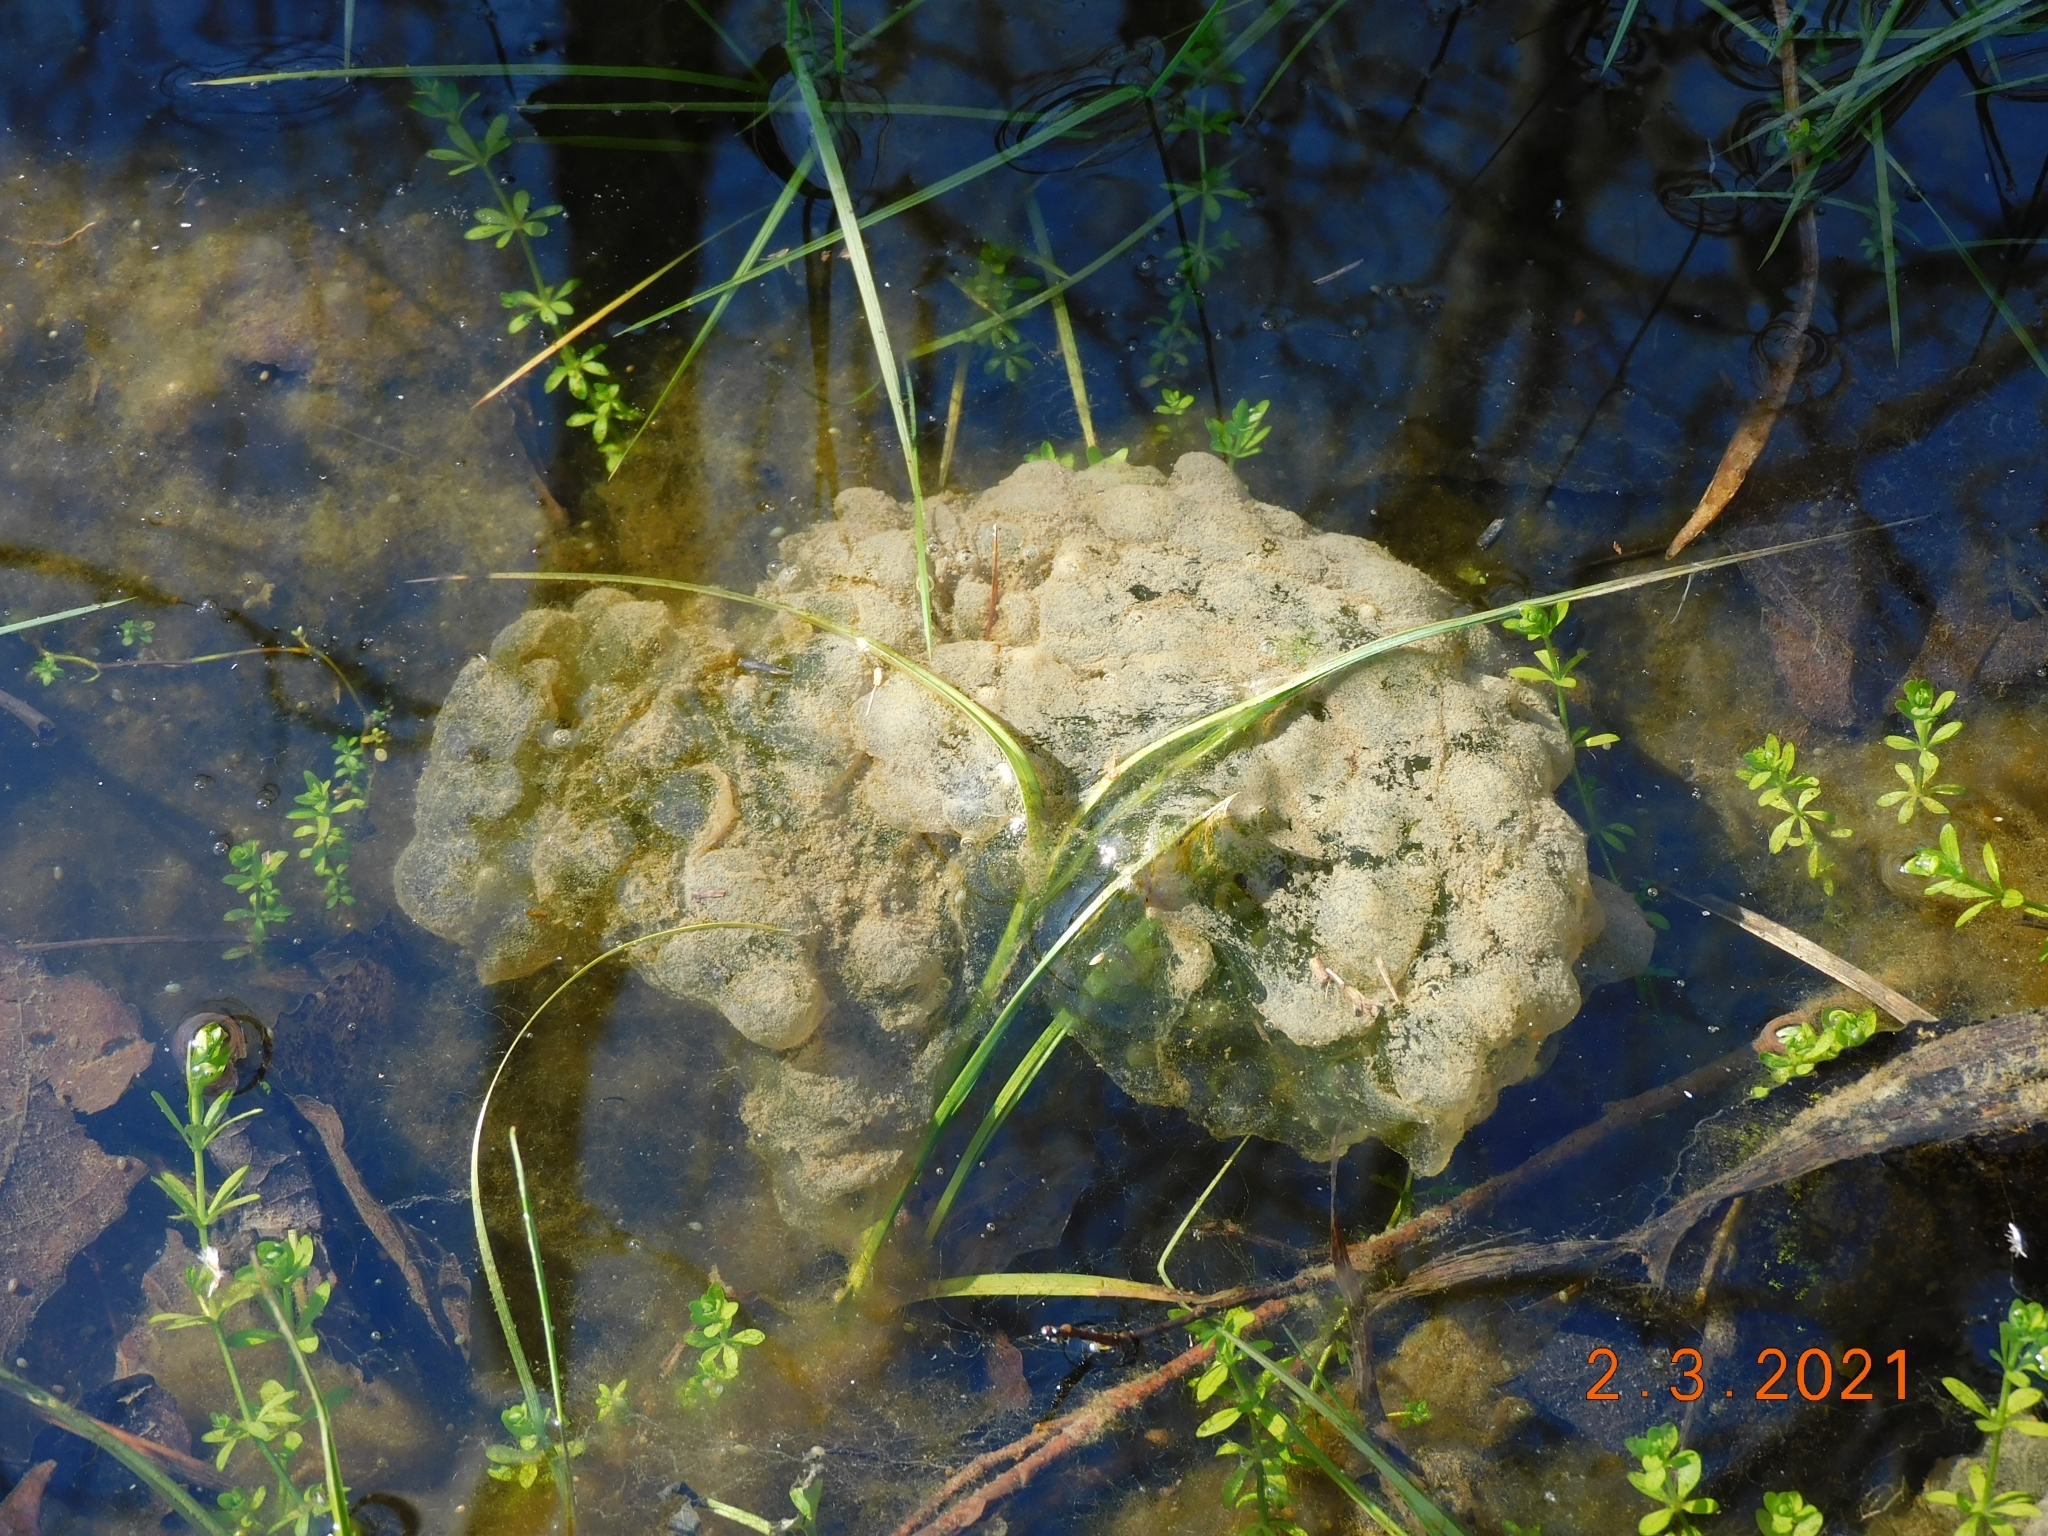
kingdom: Animalia
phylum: Chordata
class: Amphibia
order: Anura
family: Ranidae
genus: Rana
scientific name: Rana dalmatina
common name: Agile frog
